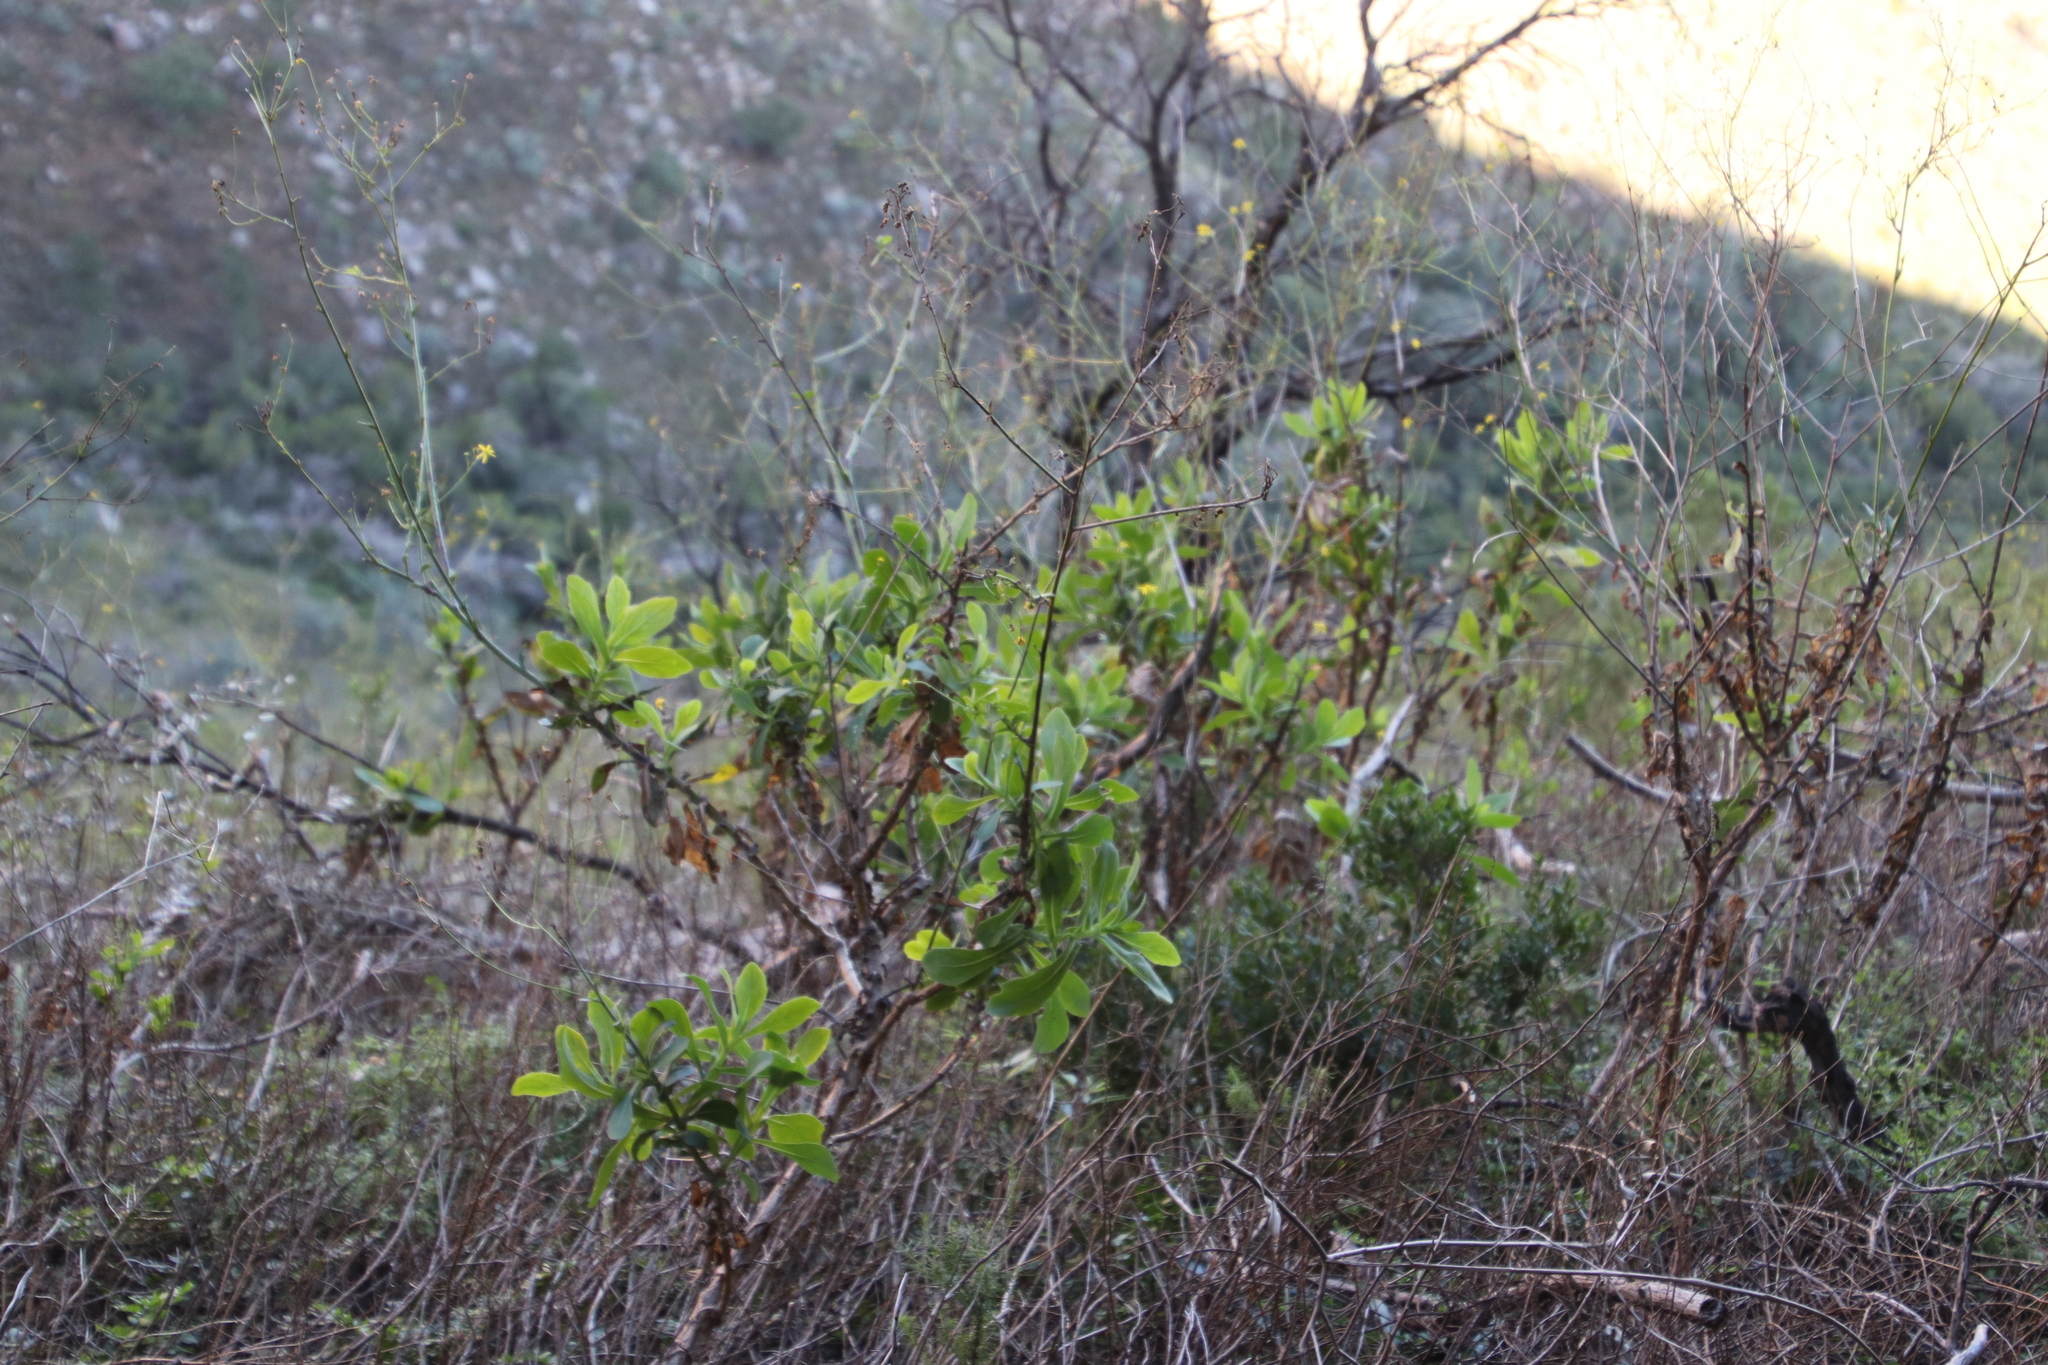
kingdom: Plantae
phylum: Tracheophyta
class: Magnoliopsida
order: Asterales
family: Asteraceae
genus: Othonna
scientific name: Othonna quinquedentata
